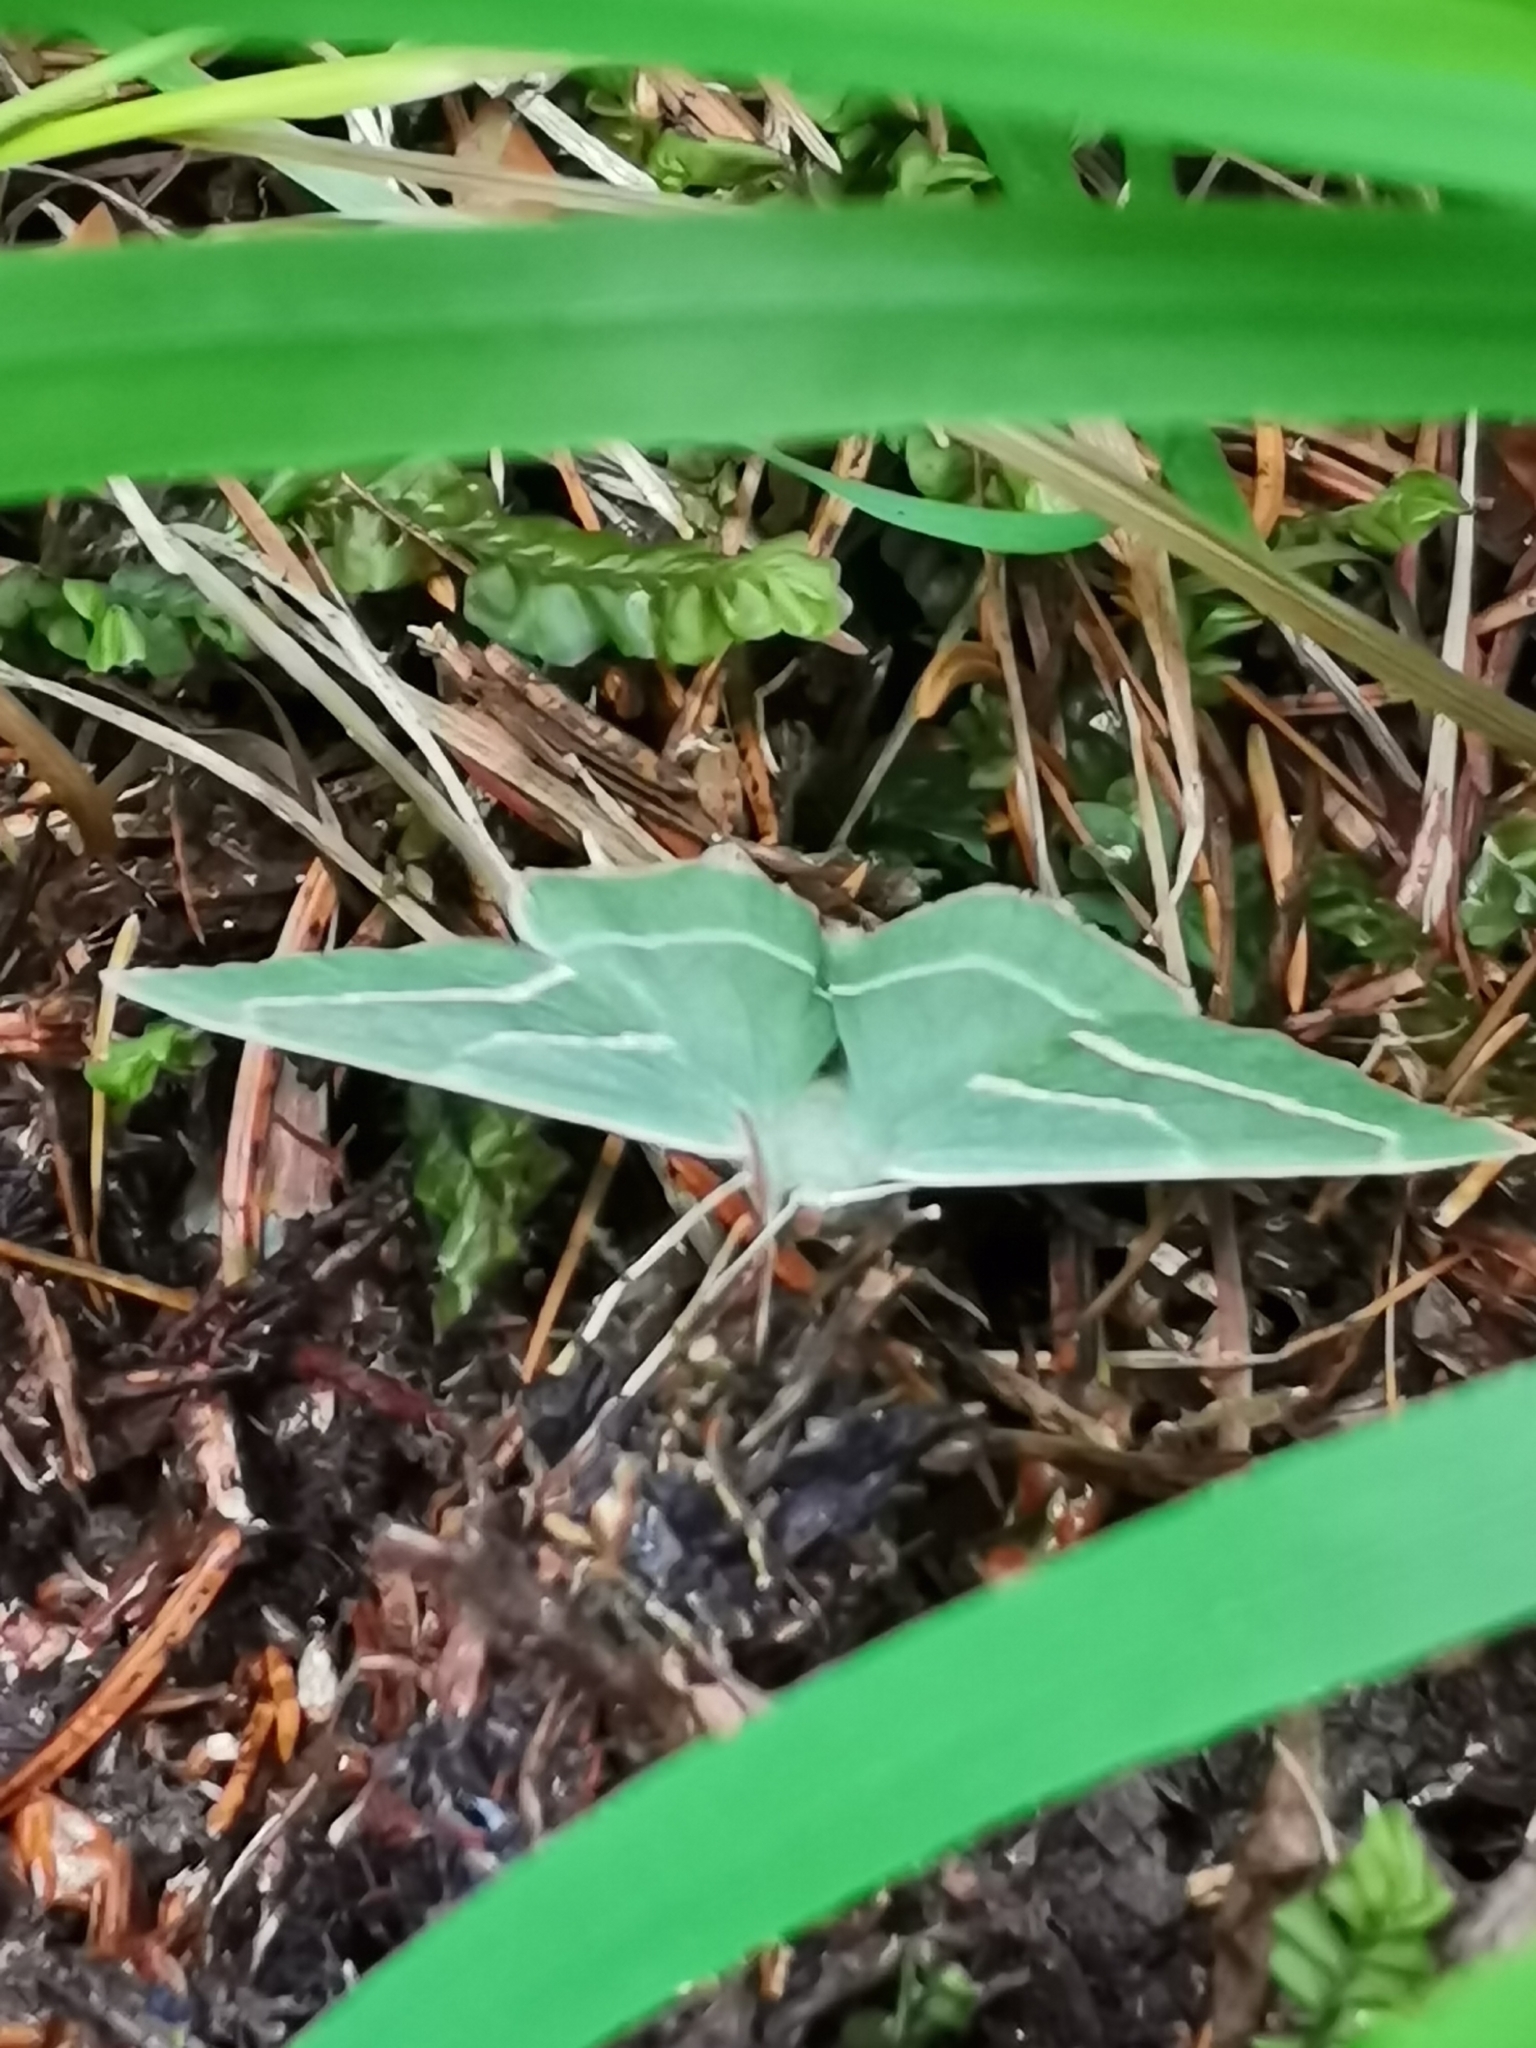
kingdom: Animalia
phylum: Arthropoda
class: Insecta
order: Lepidoptera
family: Geometridae
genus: Hylaea
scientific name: Hylaea fasciaria
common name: Barred red
